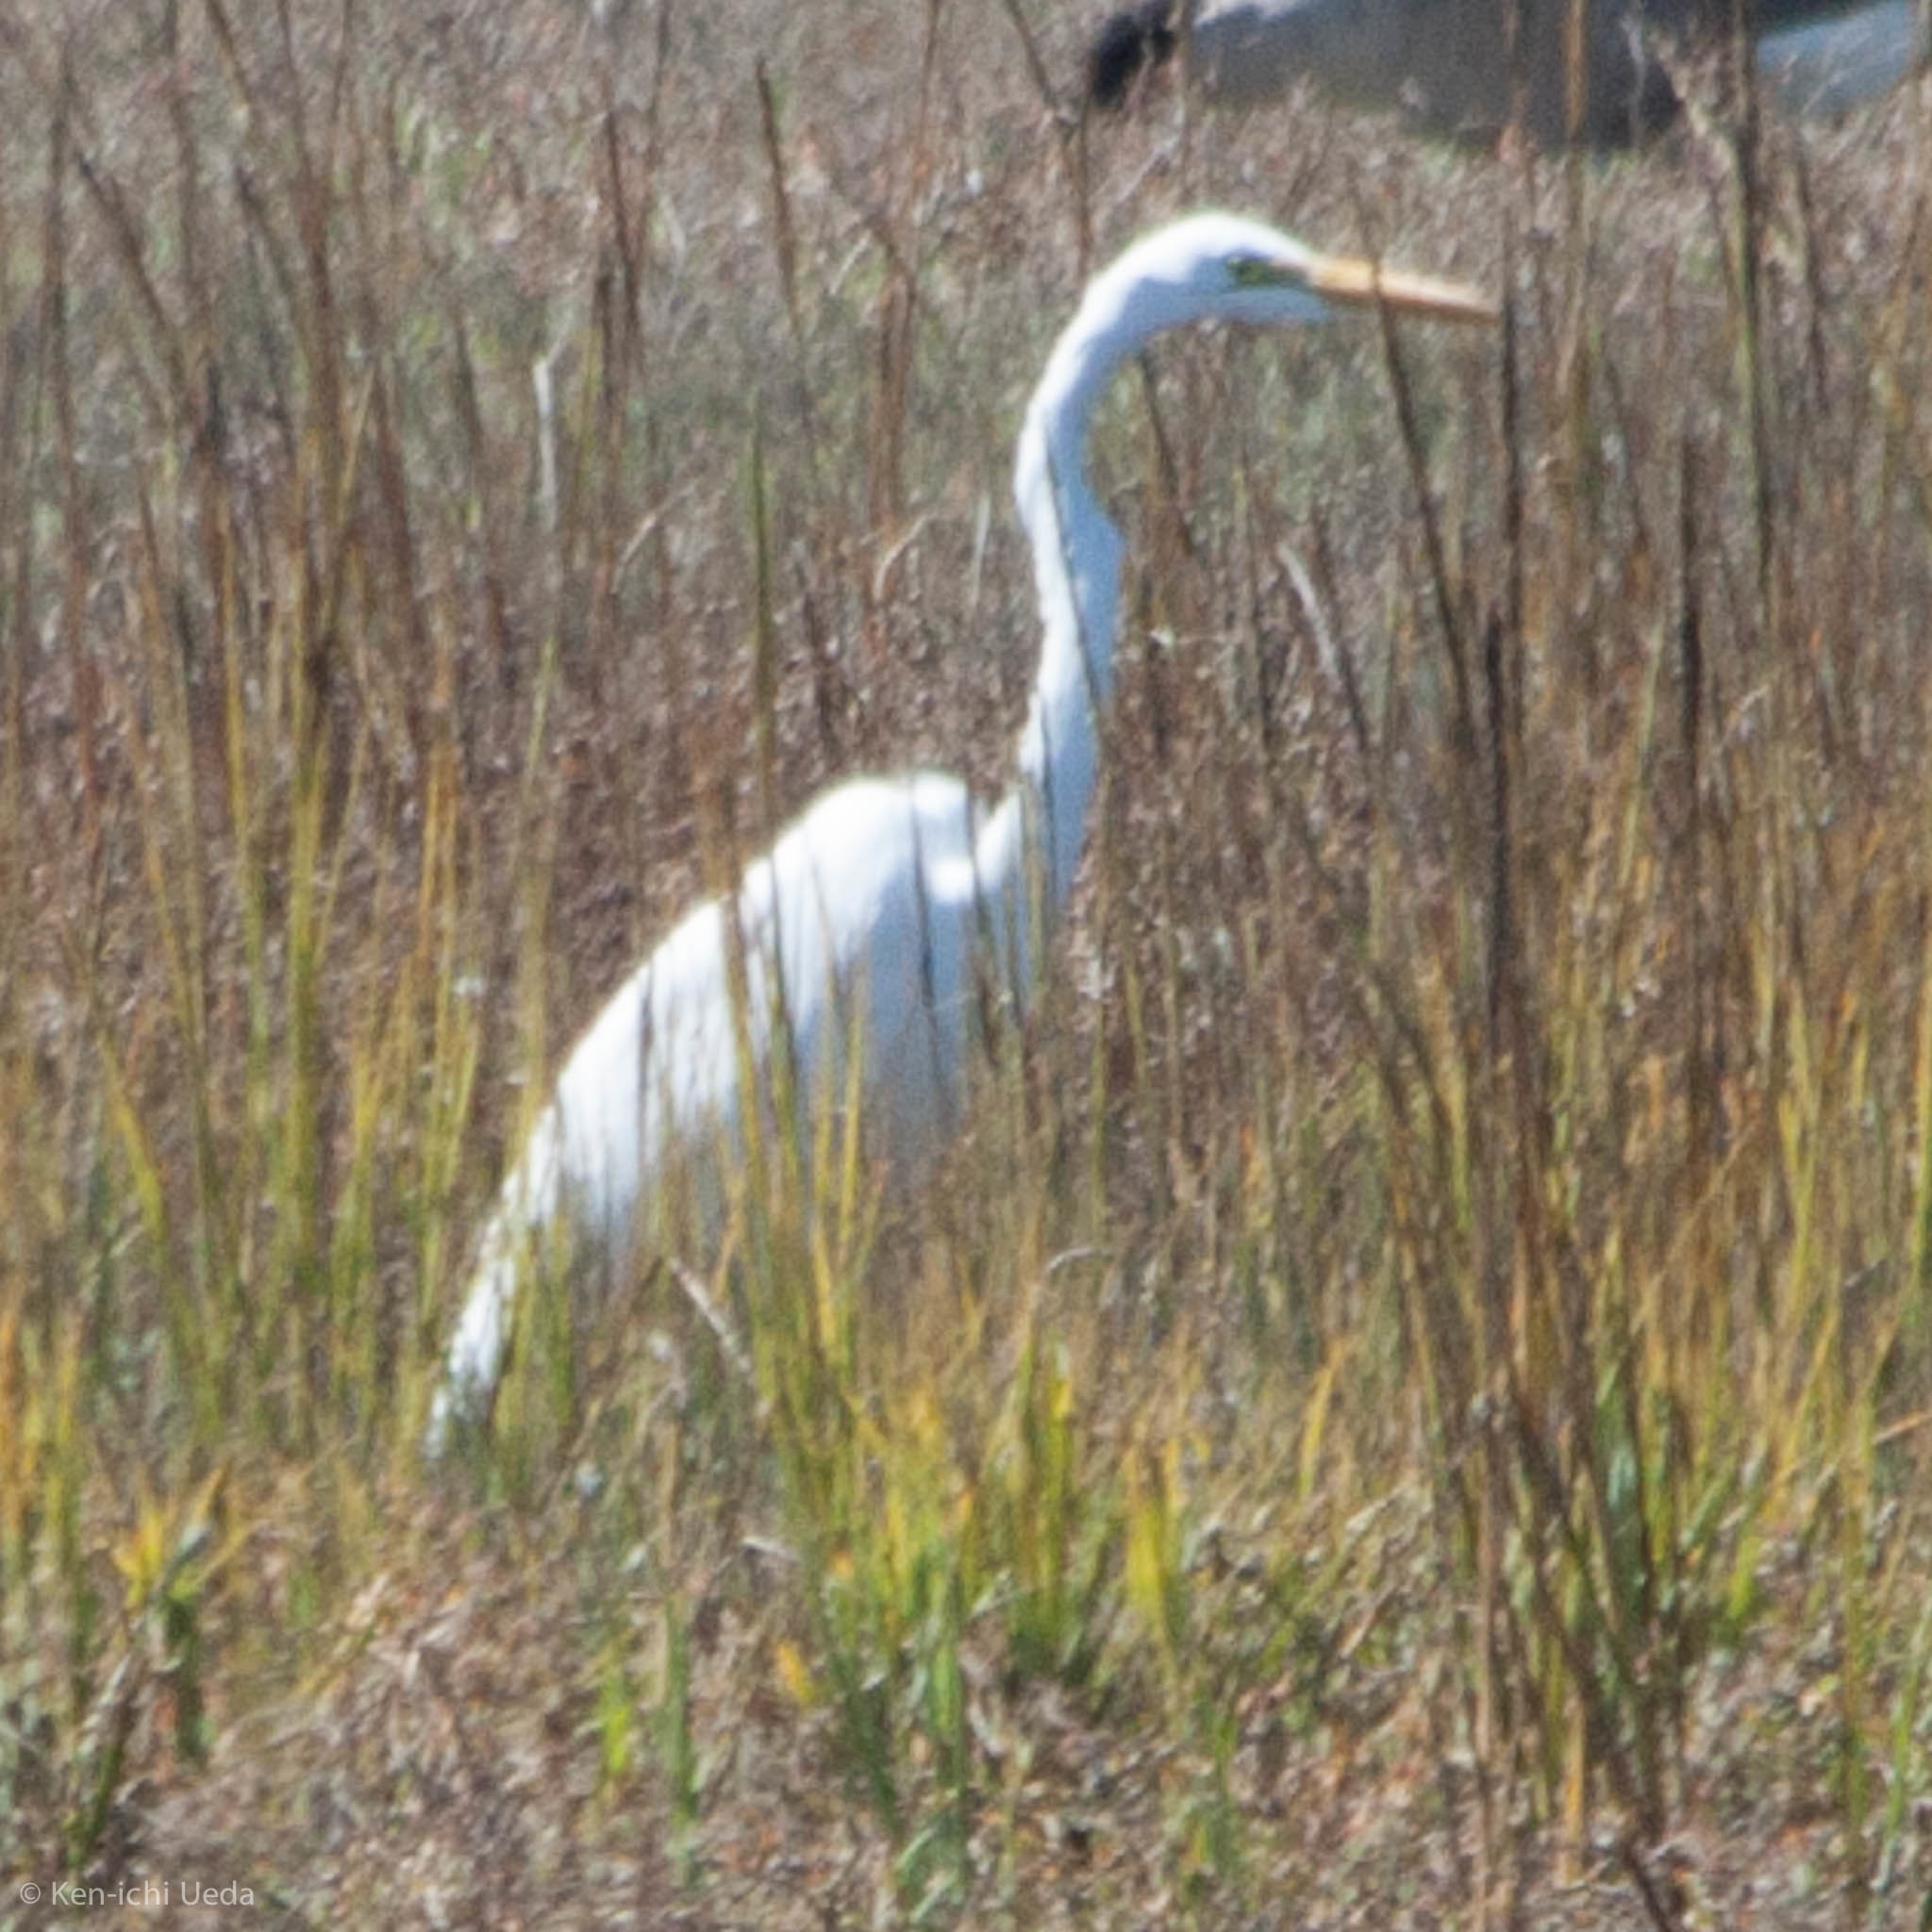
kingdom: Animalia
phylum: Chordata
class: Aves
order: Pelecaniformes
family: Ardeidae
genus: Ardea
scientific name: Ardea alba
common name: Great egret
